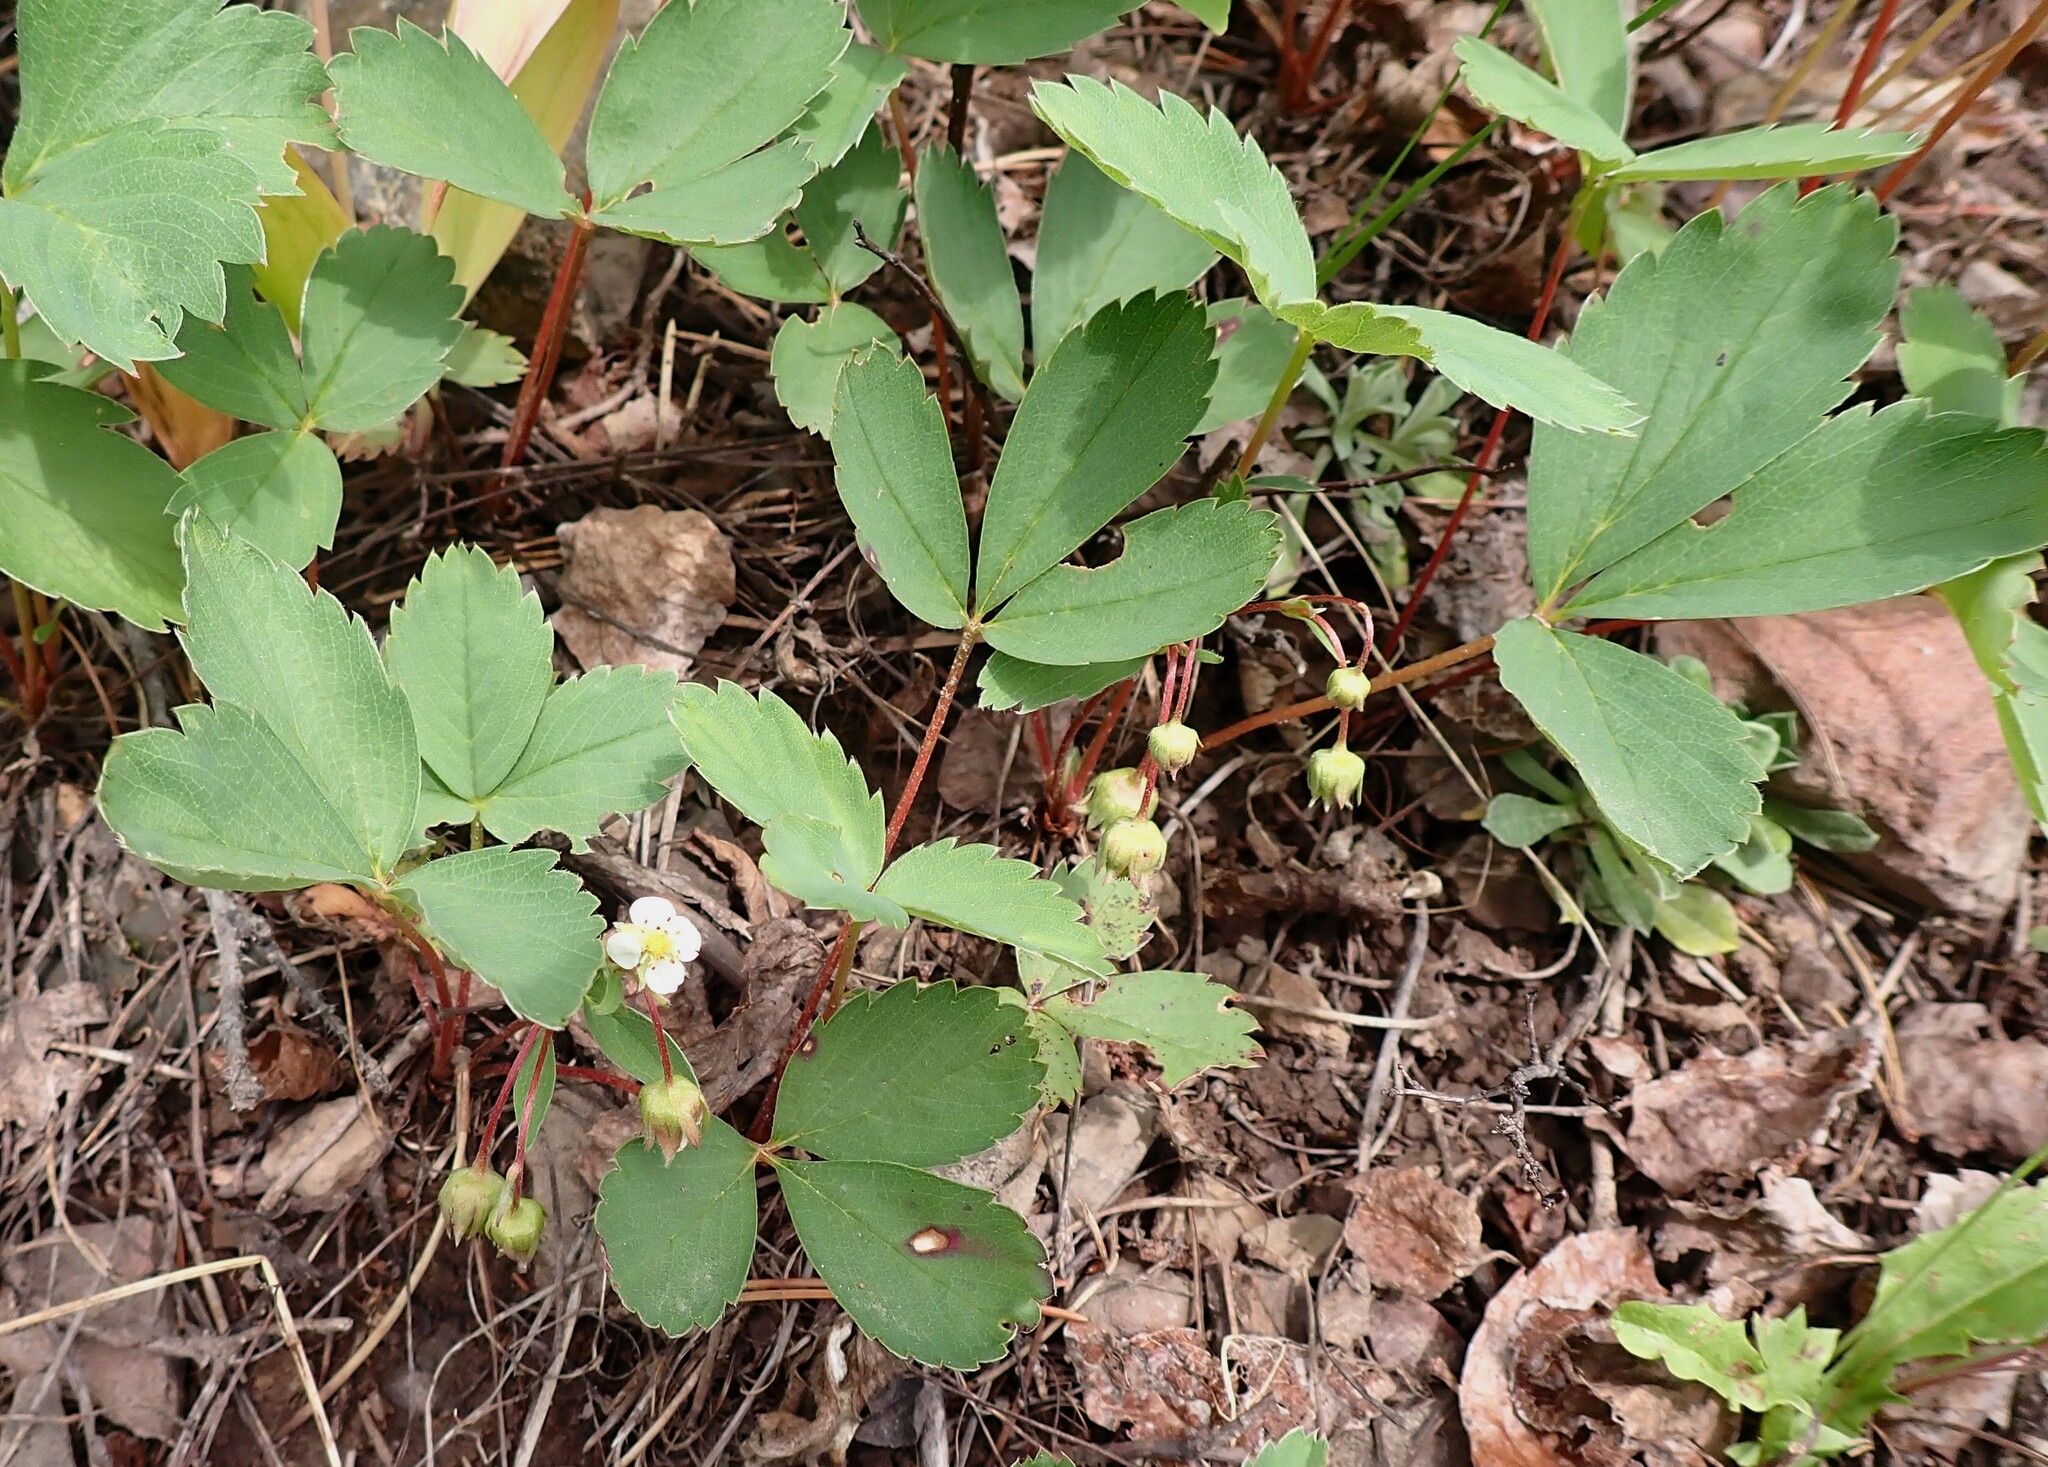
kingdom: Plantae
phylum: Tracheophyta
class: Magnoliopsida
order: Rosales
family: Rosaceae
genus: Fragaria
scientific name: Fragaria virginiana
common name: Thickleaved wild strawberry
